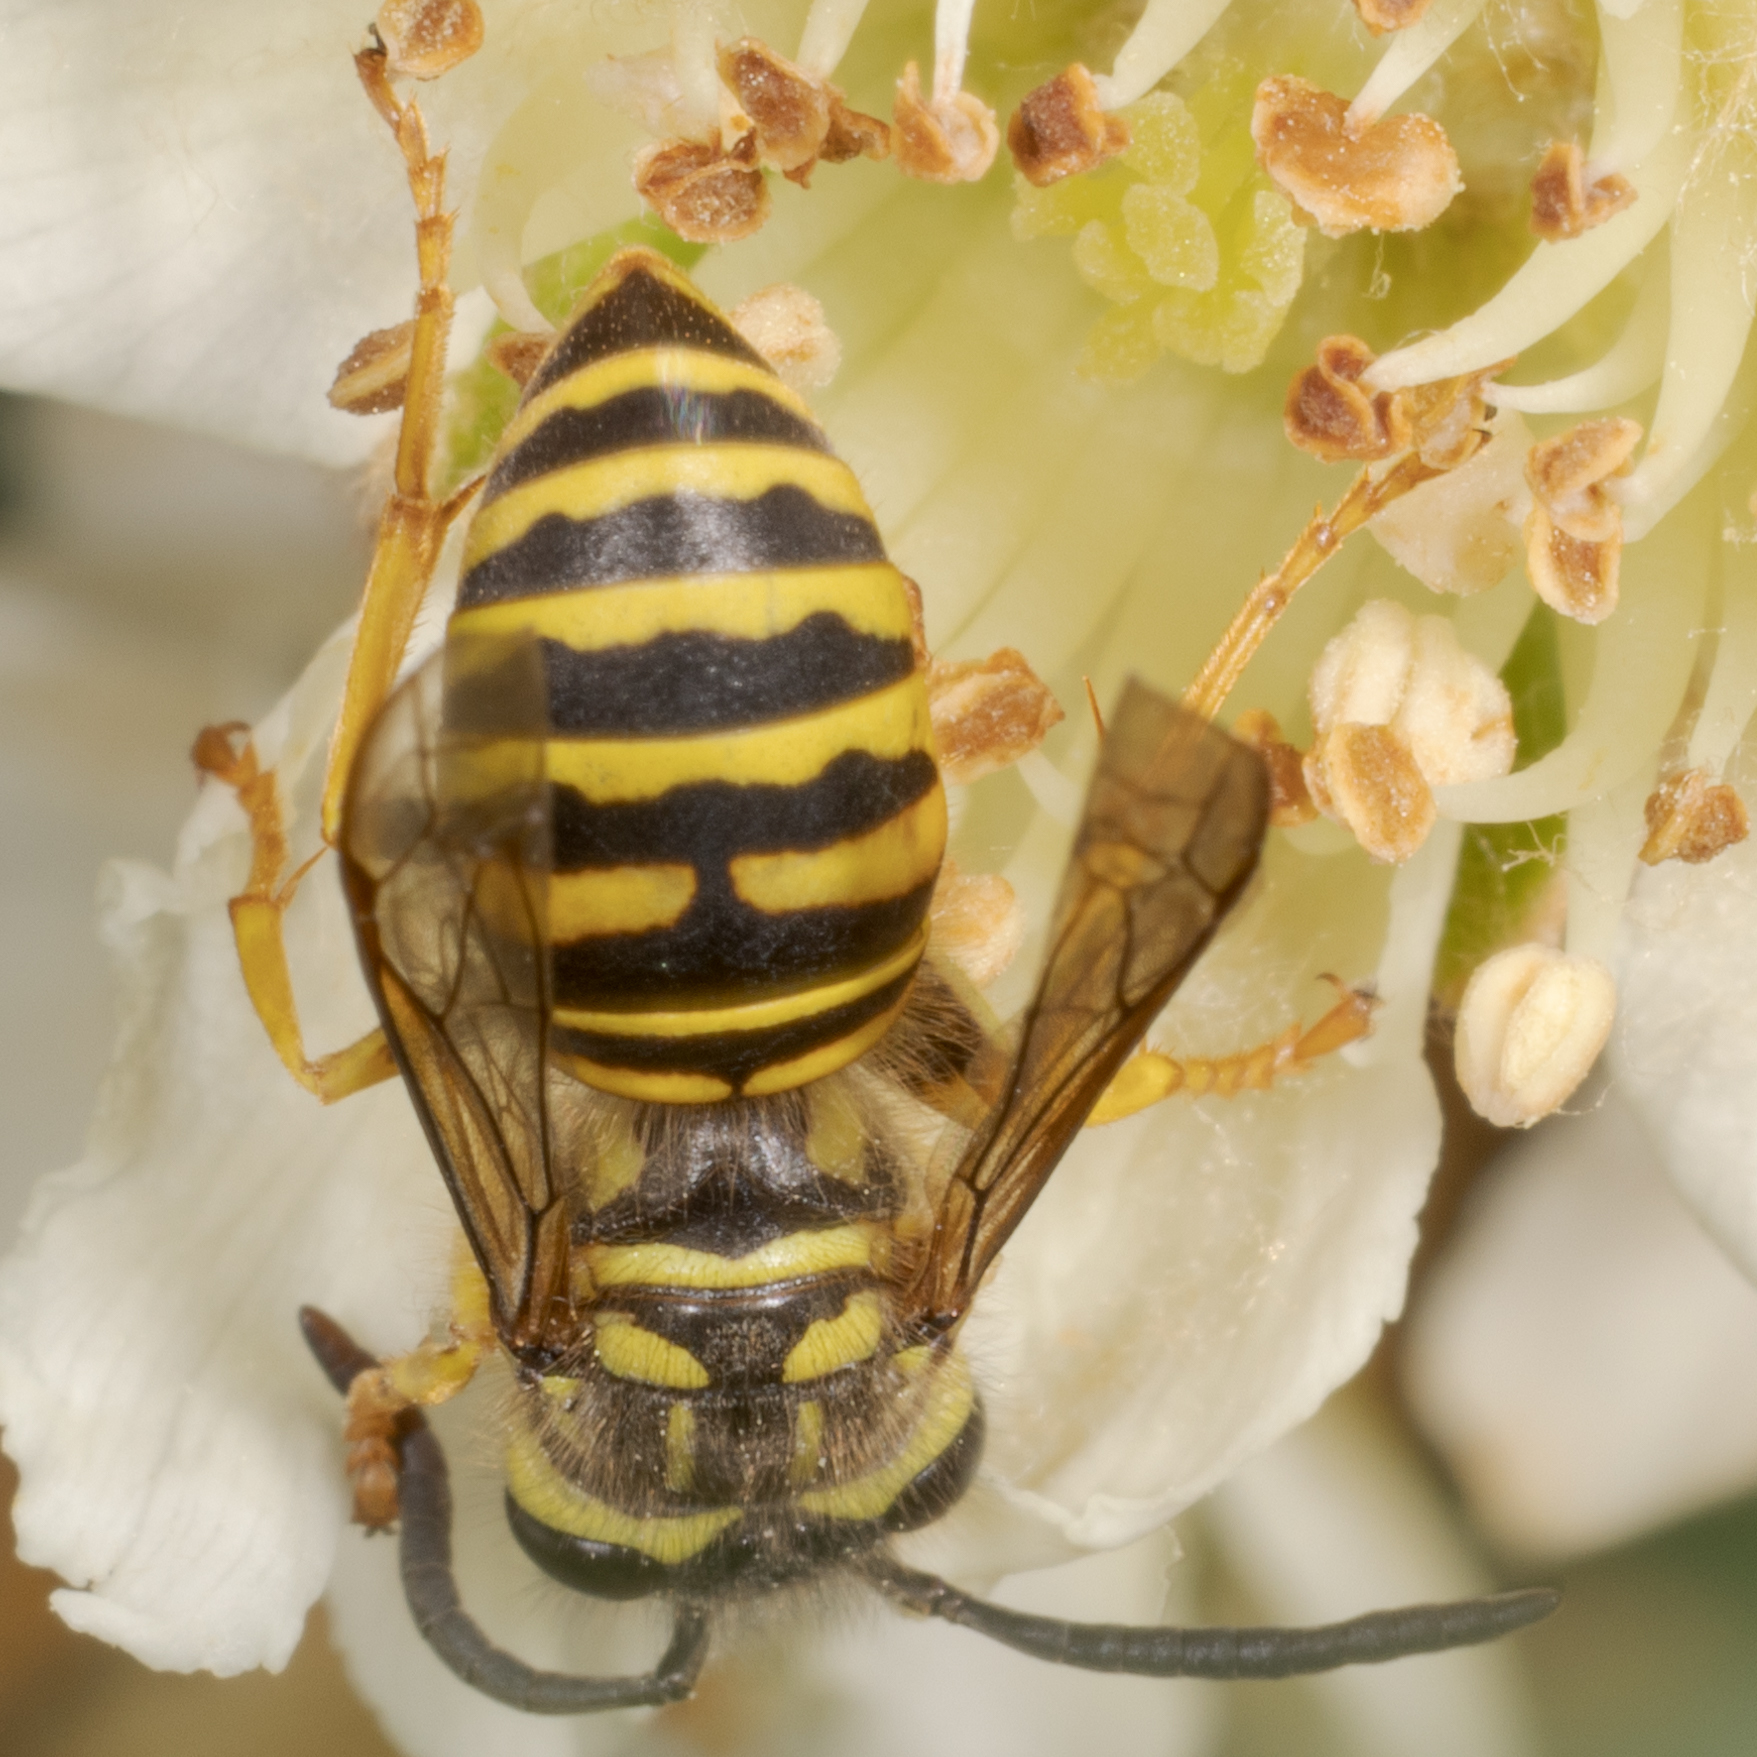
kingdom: Animalia
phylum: Arthropoda
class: Insecta
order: Hymenoptera
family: Vespidae
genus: Vespula
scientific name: Vespula squamosa
